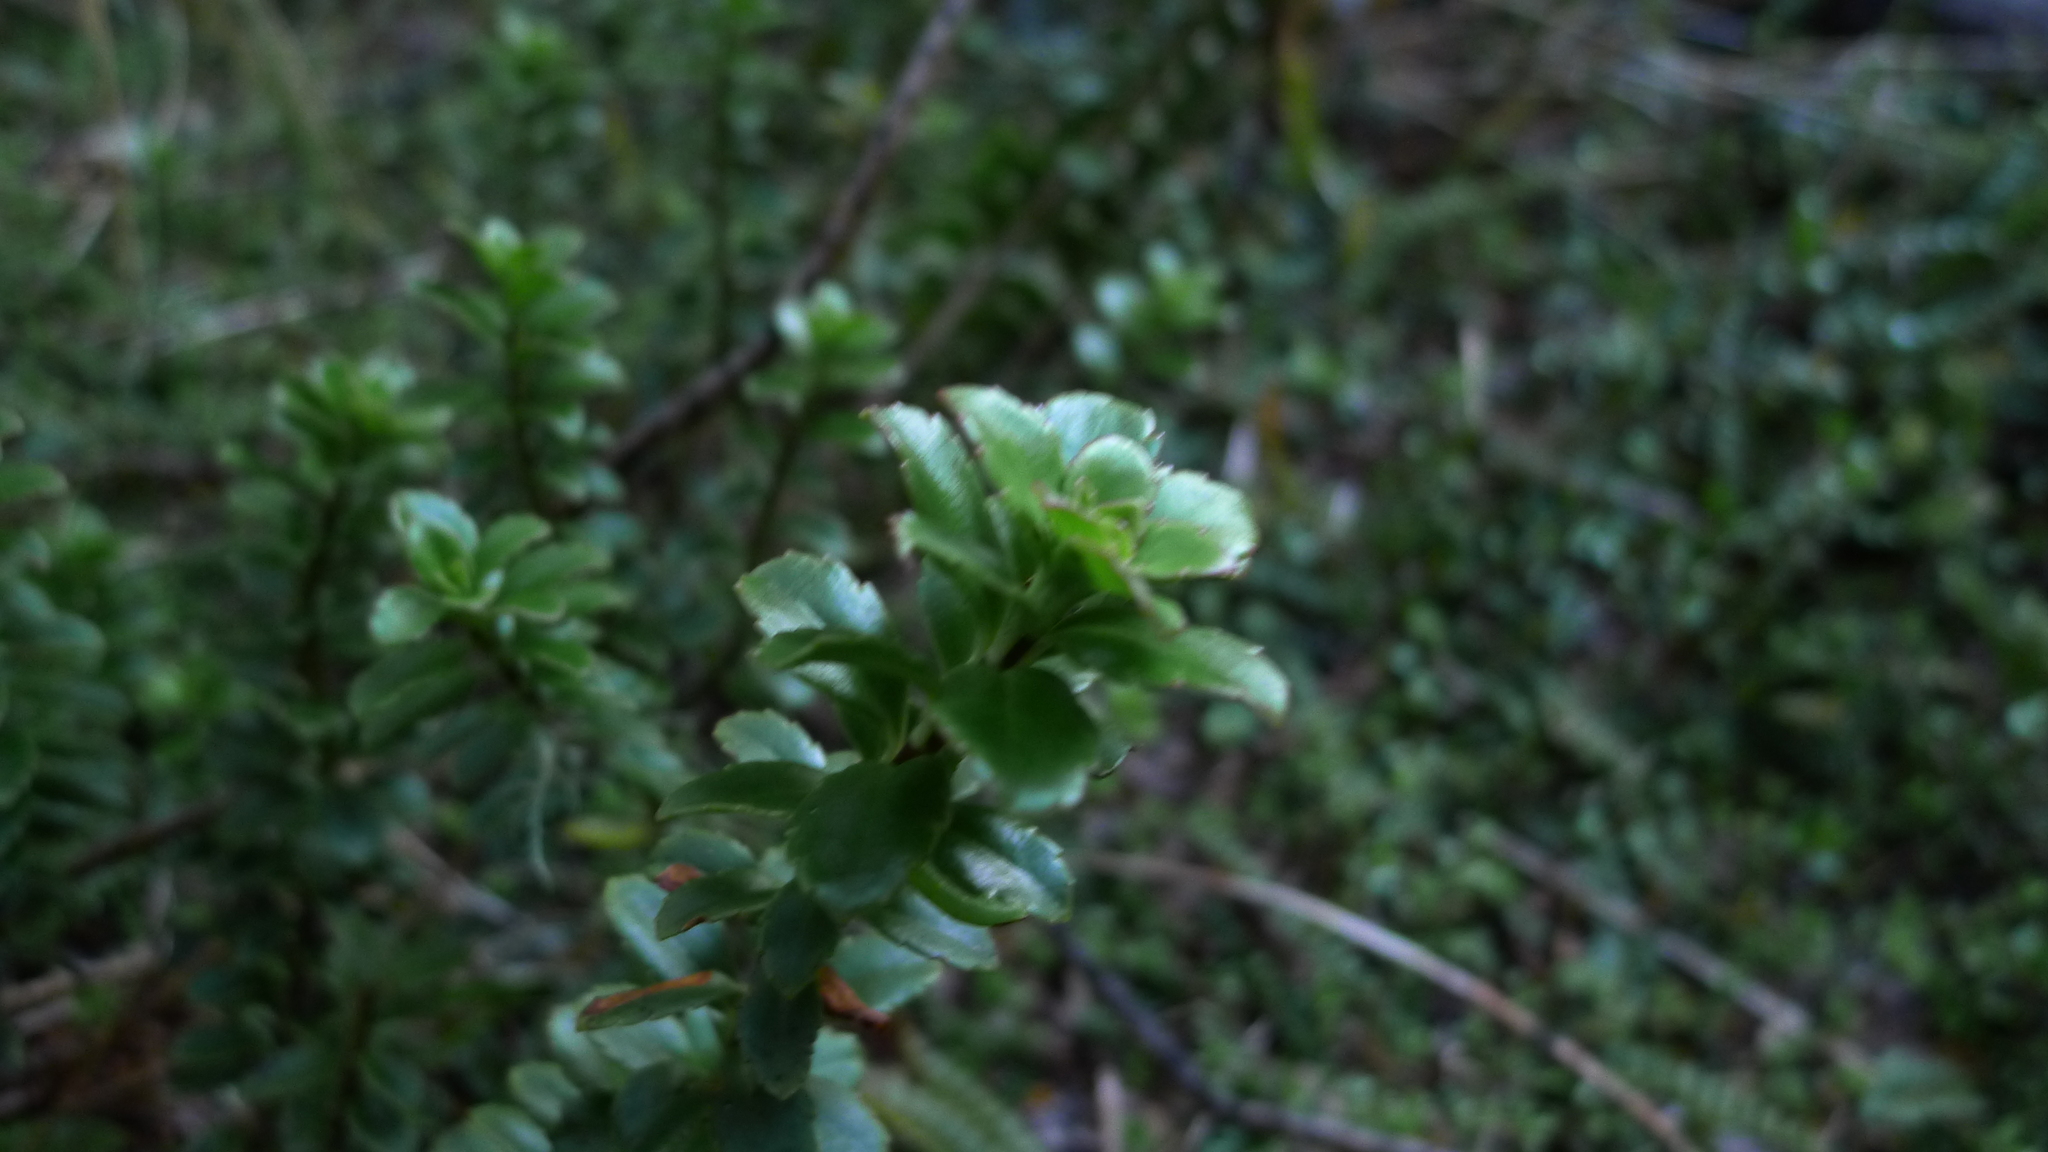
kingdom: Plantae
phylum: Tracheophyta
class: Magnoliopsida
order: Lamiales
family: Plantaginaceae
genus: Veronica
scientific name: Veronica macrantha
